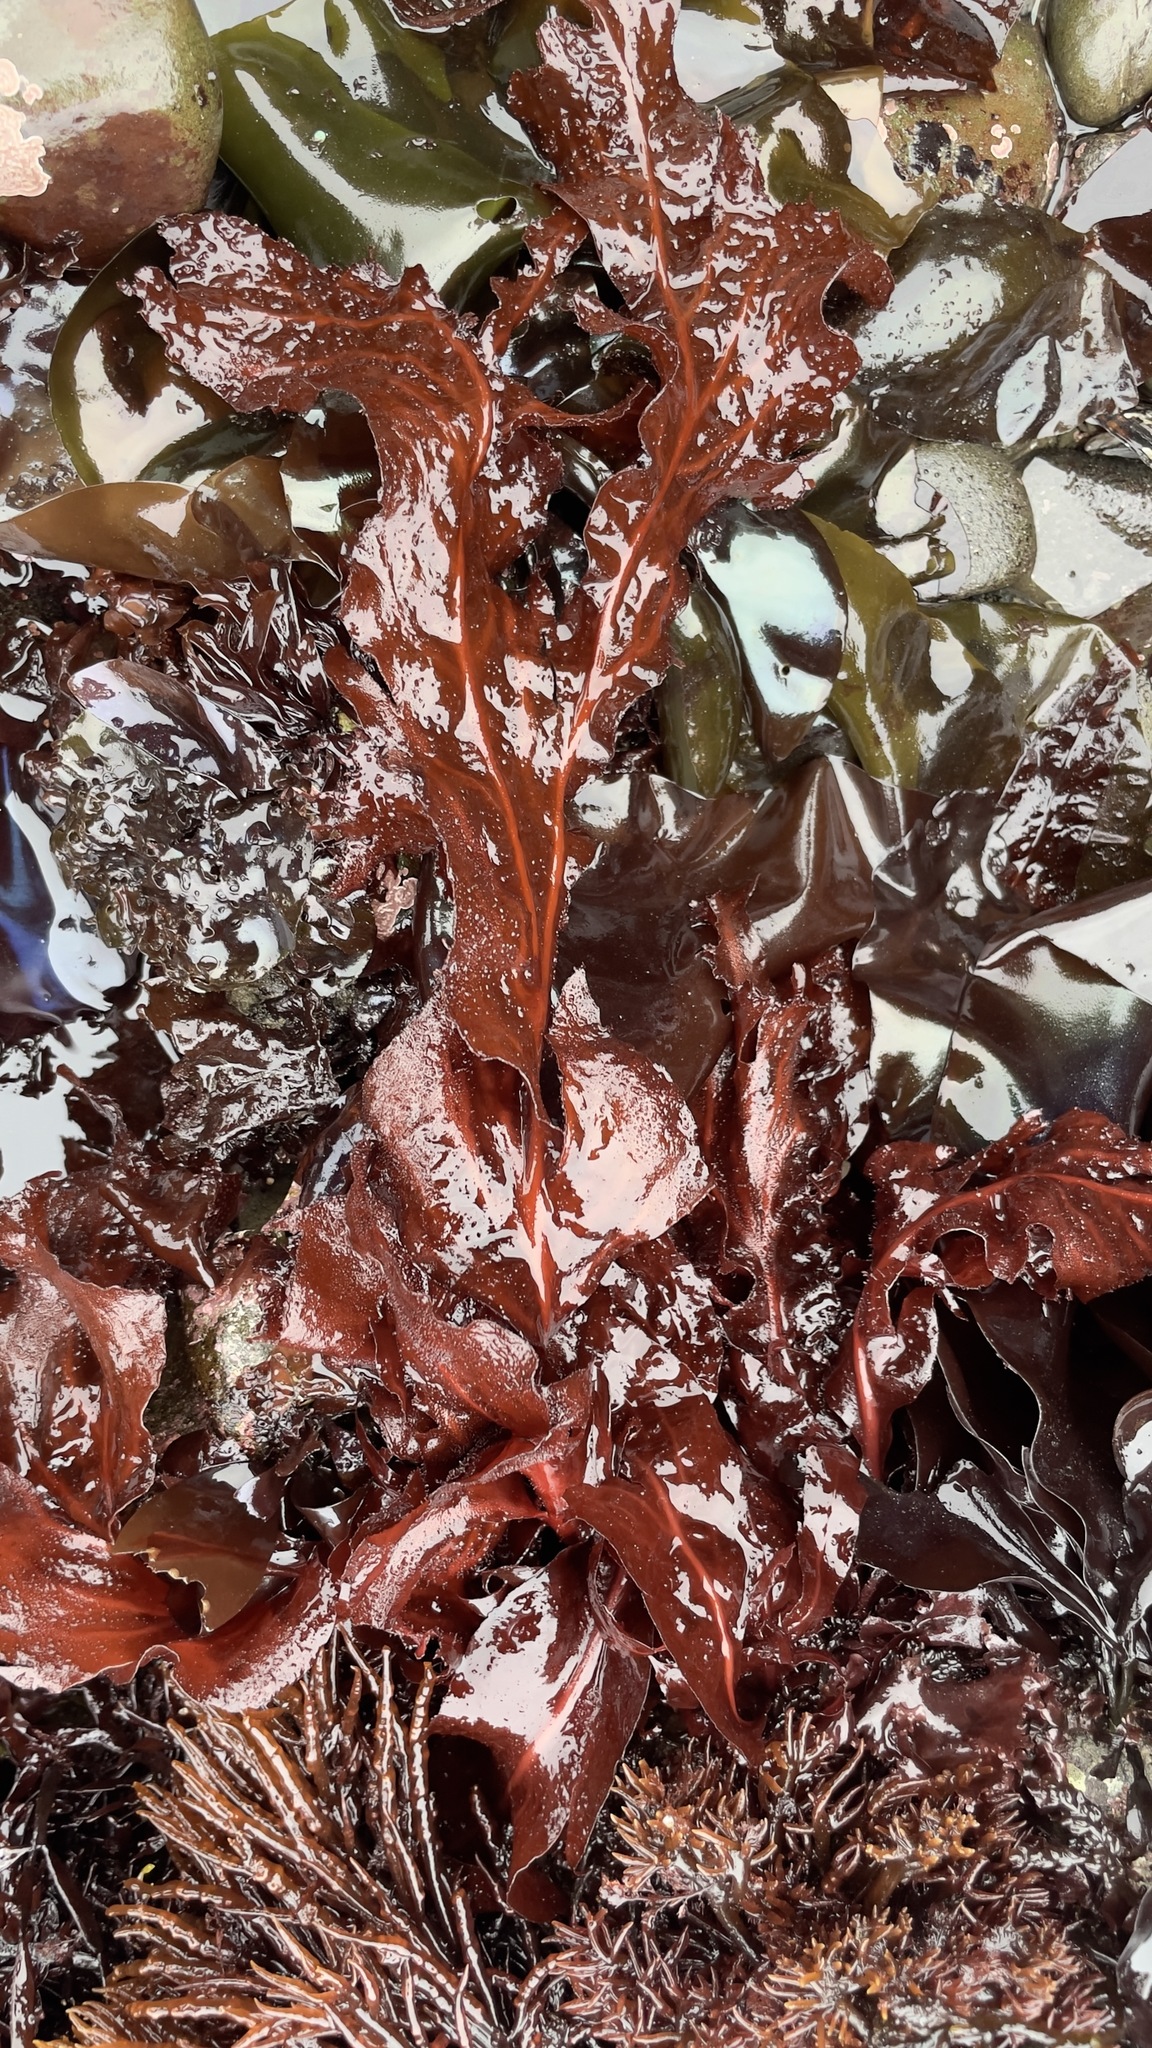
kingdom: Plantae
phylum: Rhodophyta
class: Florideophyceae
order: Gigartinales
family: Kallymeniaceae
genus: Erythrophyllum
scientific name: Erythrophyllum delesserioides
